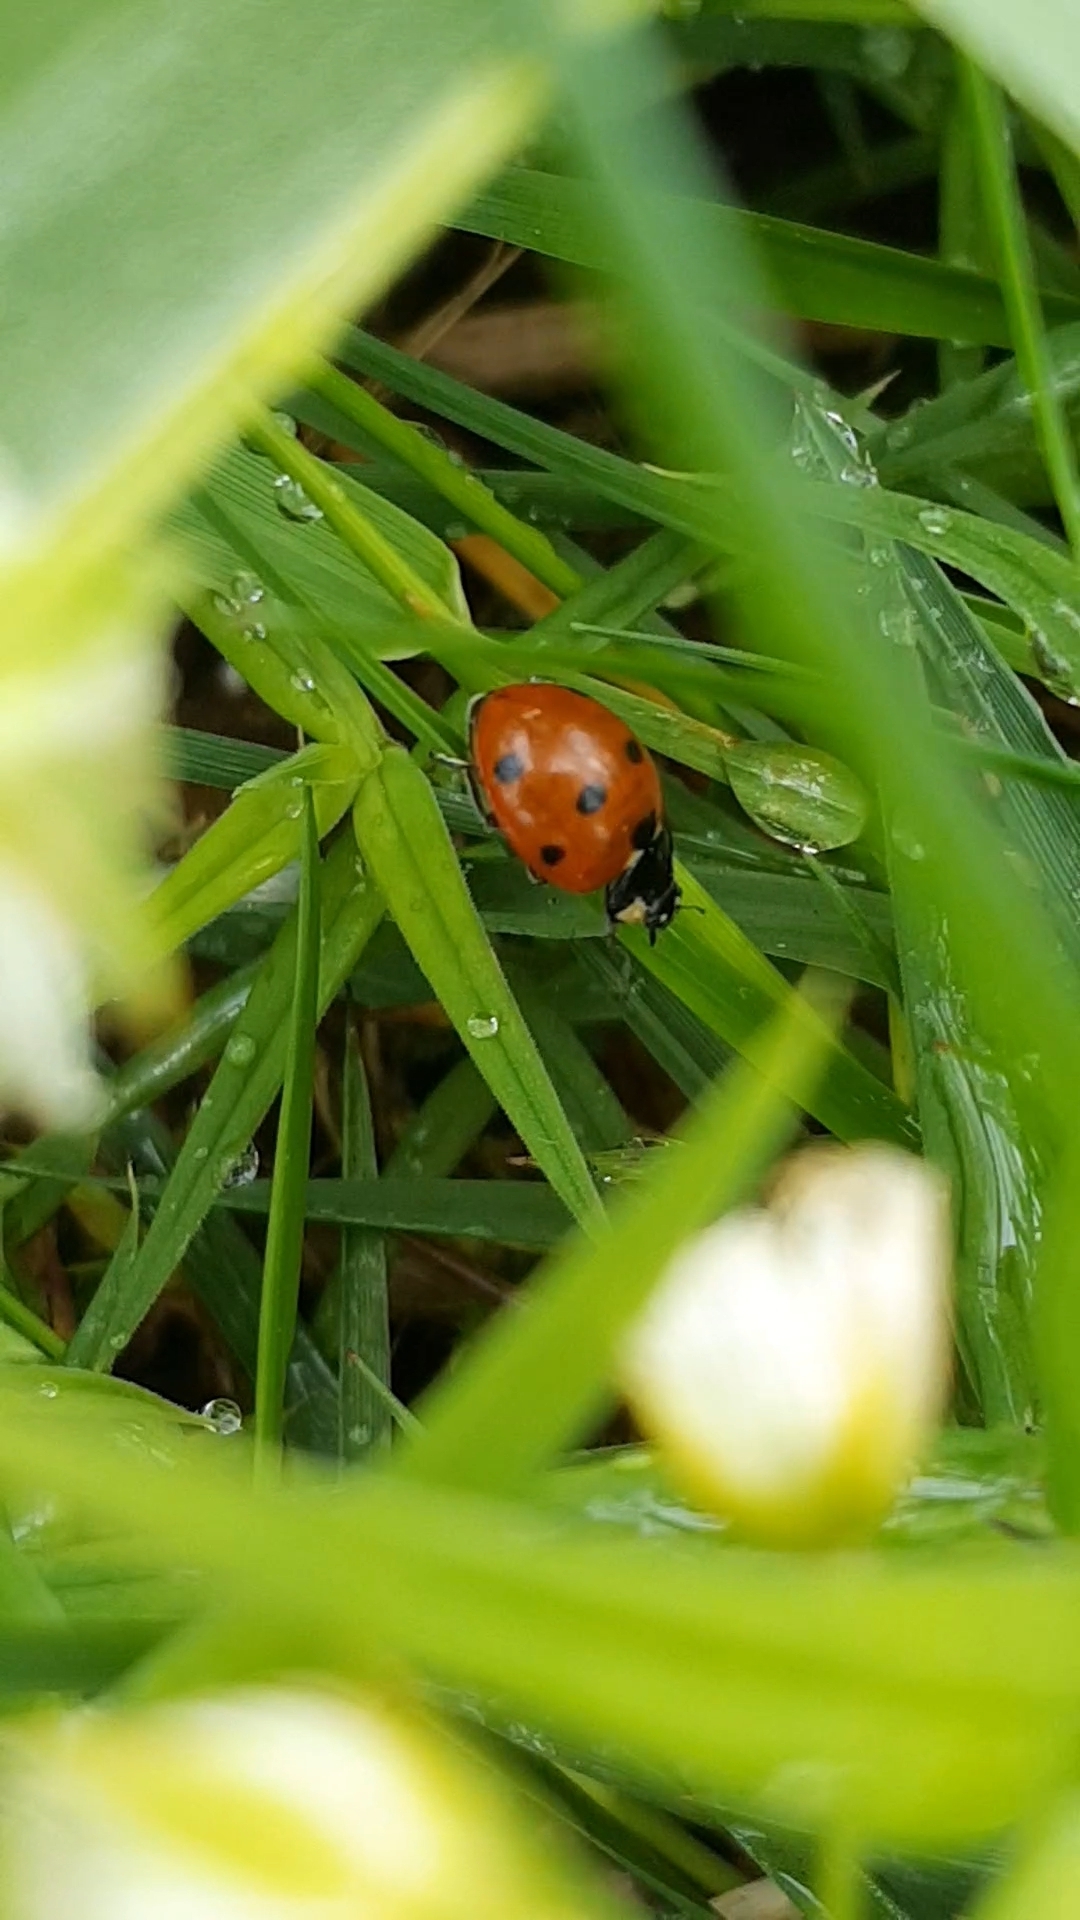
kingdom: Animalia
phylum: Arthropoda
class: Insecta
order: Coleoptera
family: Coccinellidae
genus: Coccinella
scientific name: Coccinella septempunctata
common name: Sevenspotted lady beetle
